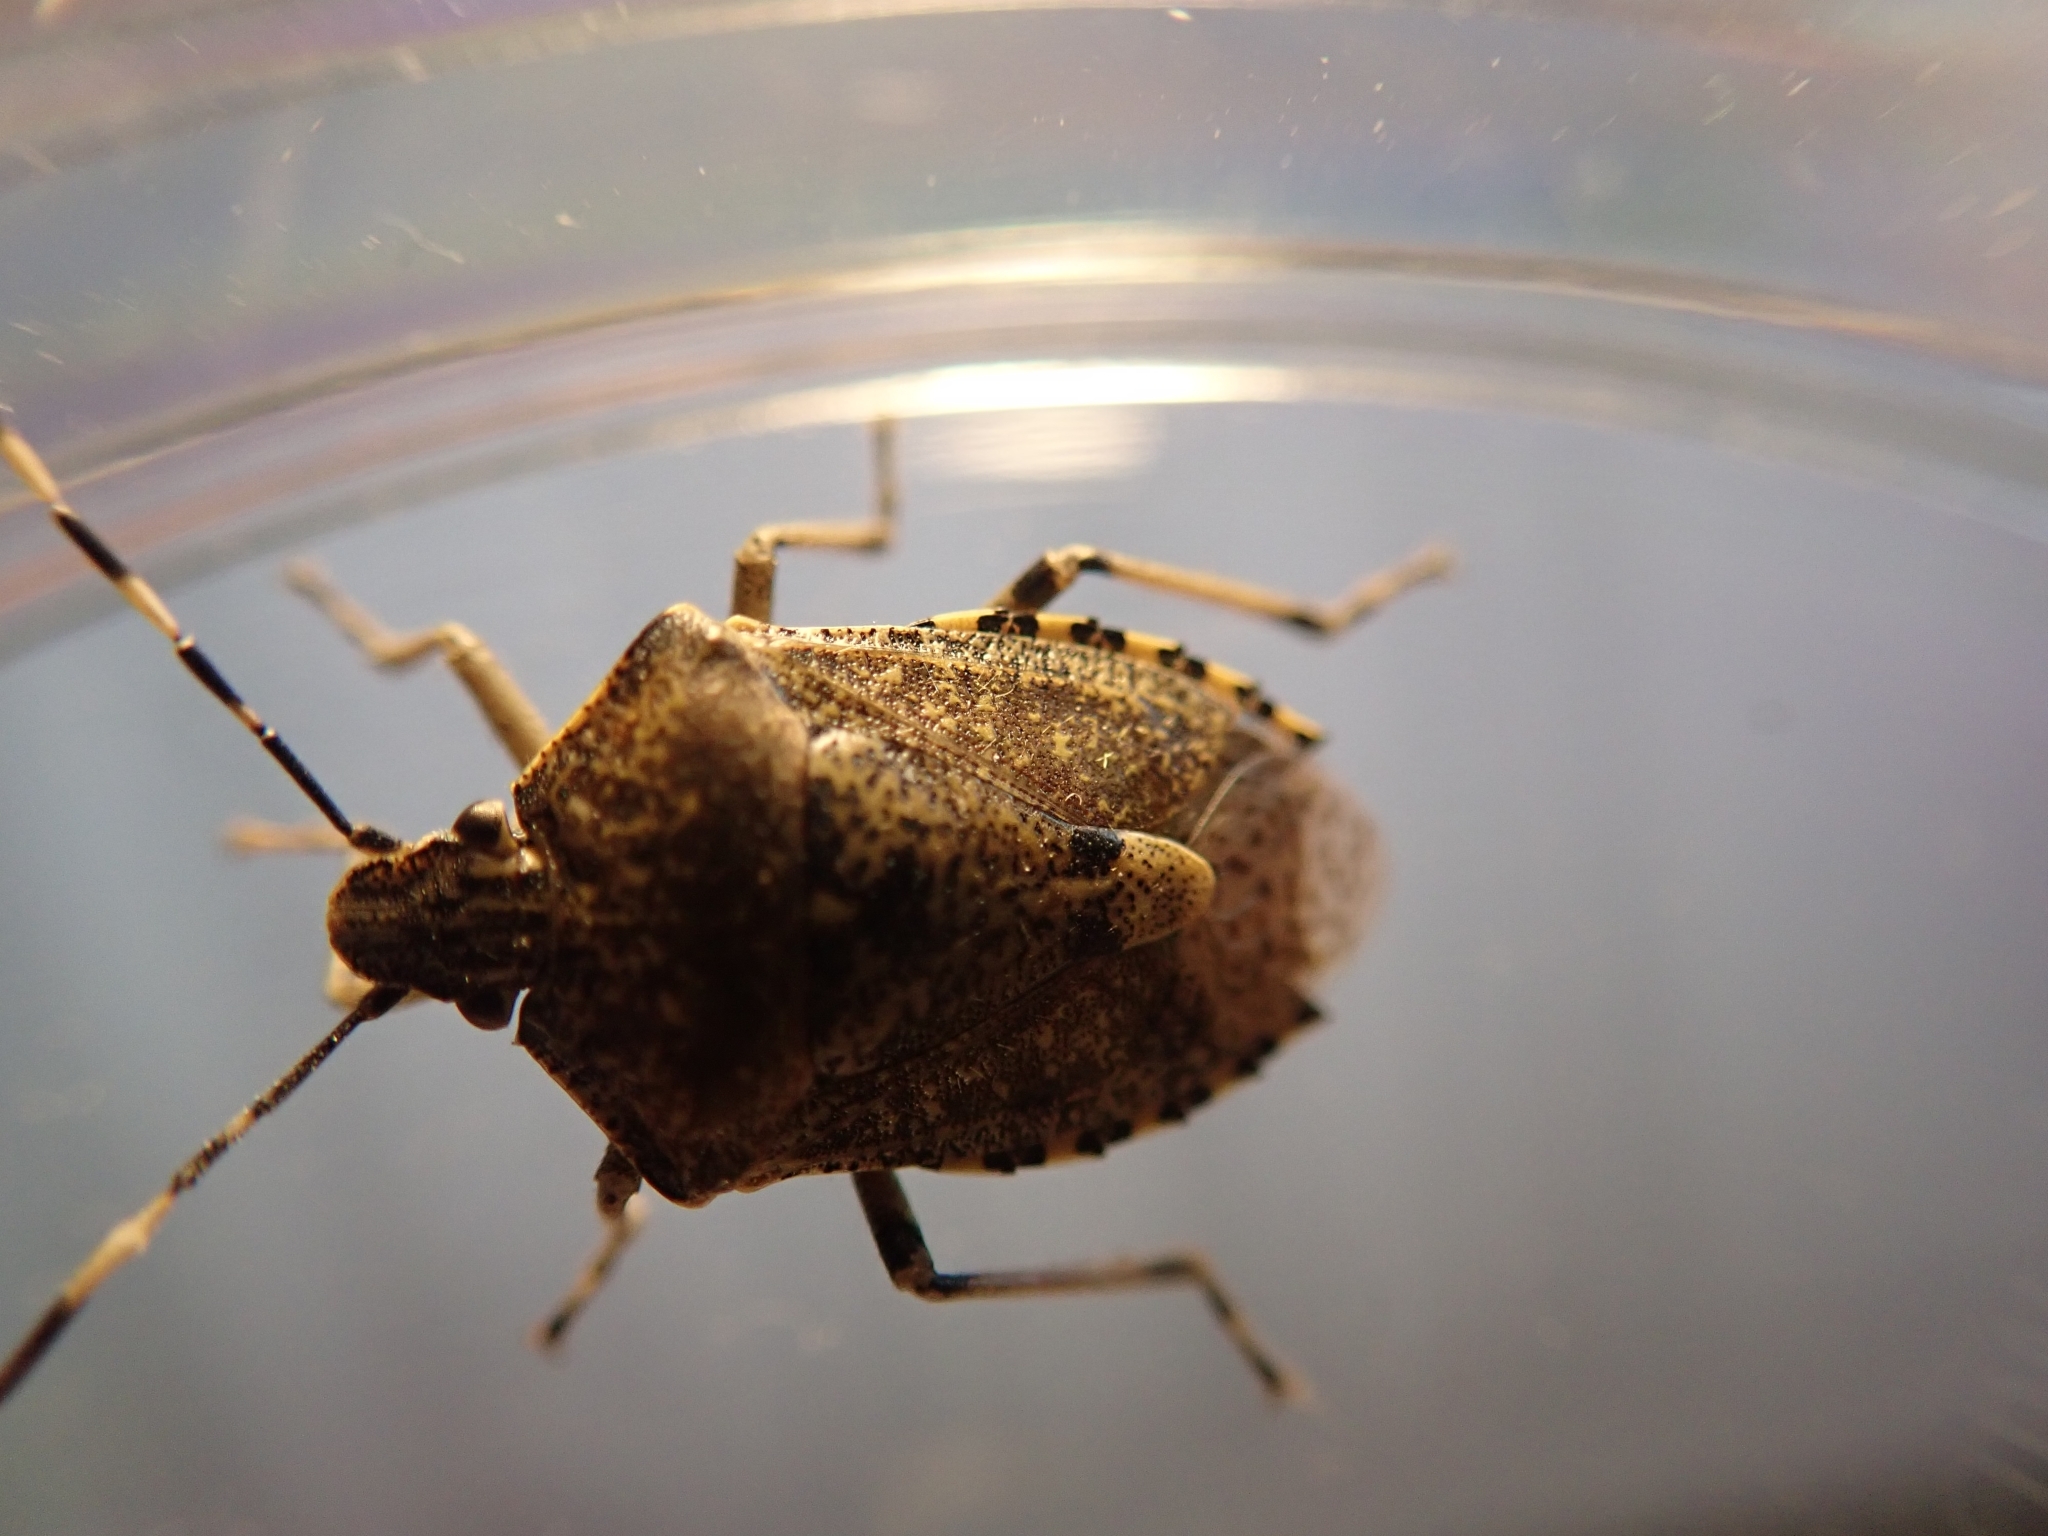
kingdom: Animalia
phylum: Arthropoda
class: Insecta
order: Hemiptera
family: Pentatomidae
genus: Rhaphigaster
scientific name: Rhaphigaster nebulosa
